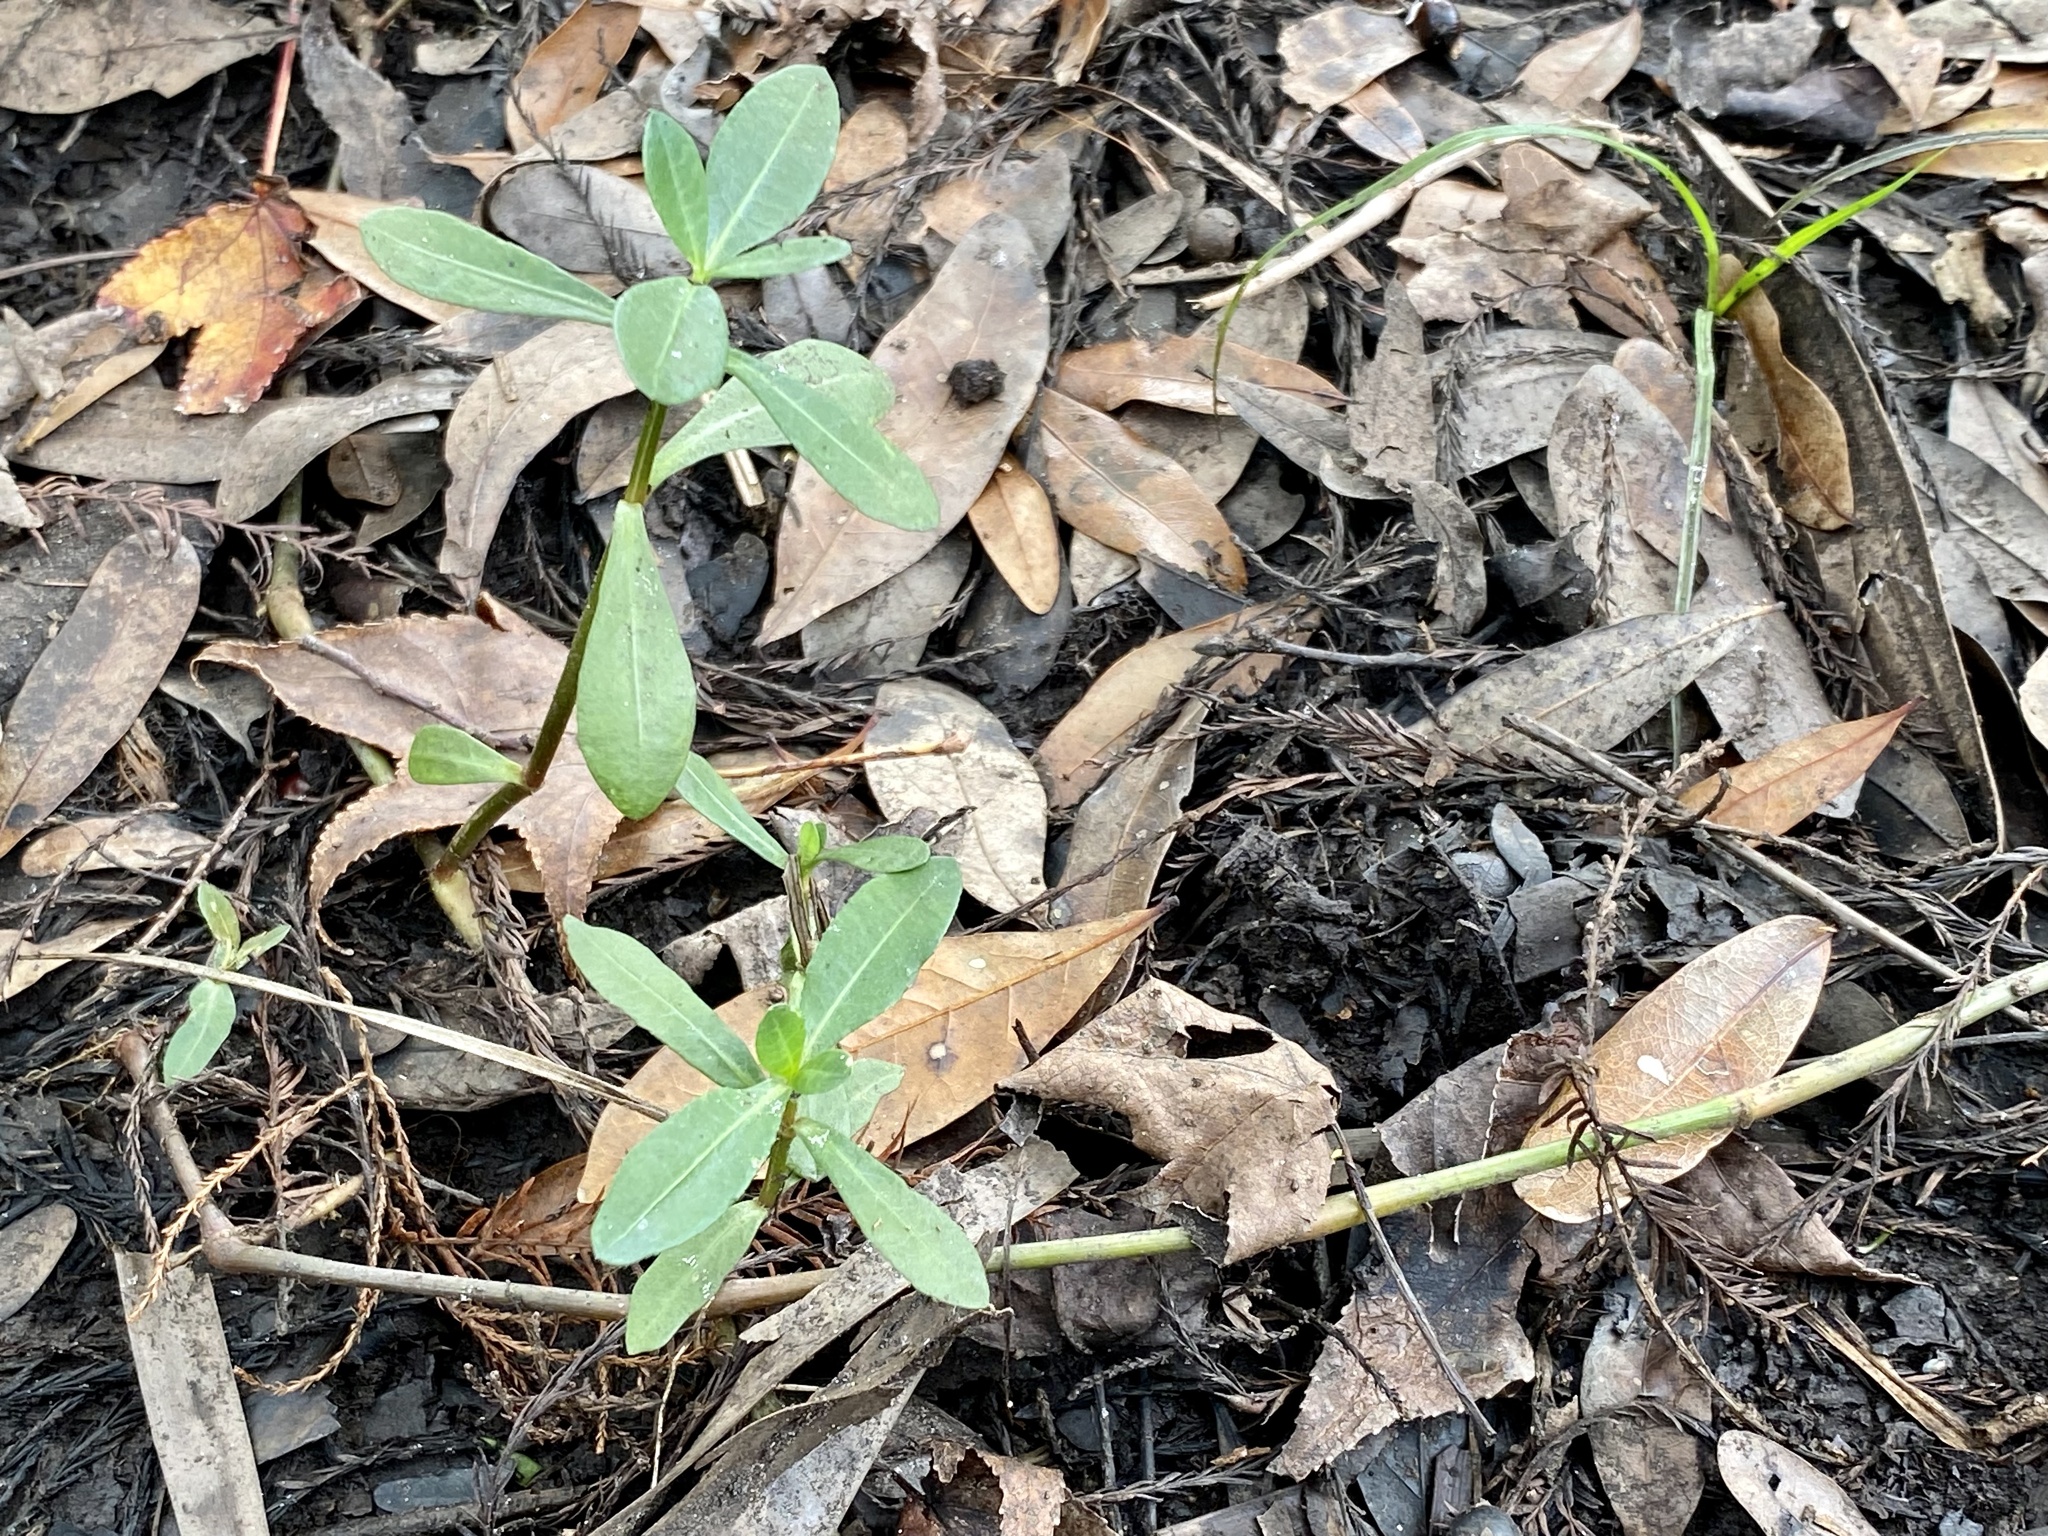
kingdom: Plantae
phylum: Tracheophyta
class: Magnoliopsida
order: Caryophyllales
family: Amaranthaceae
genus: Alternanthera
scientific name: Alternanthera philoxeroides
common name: Alligatorweed
